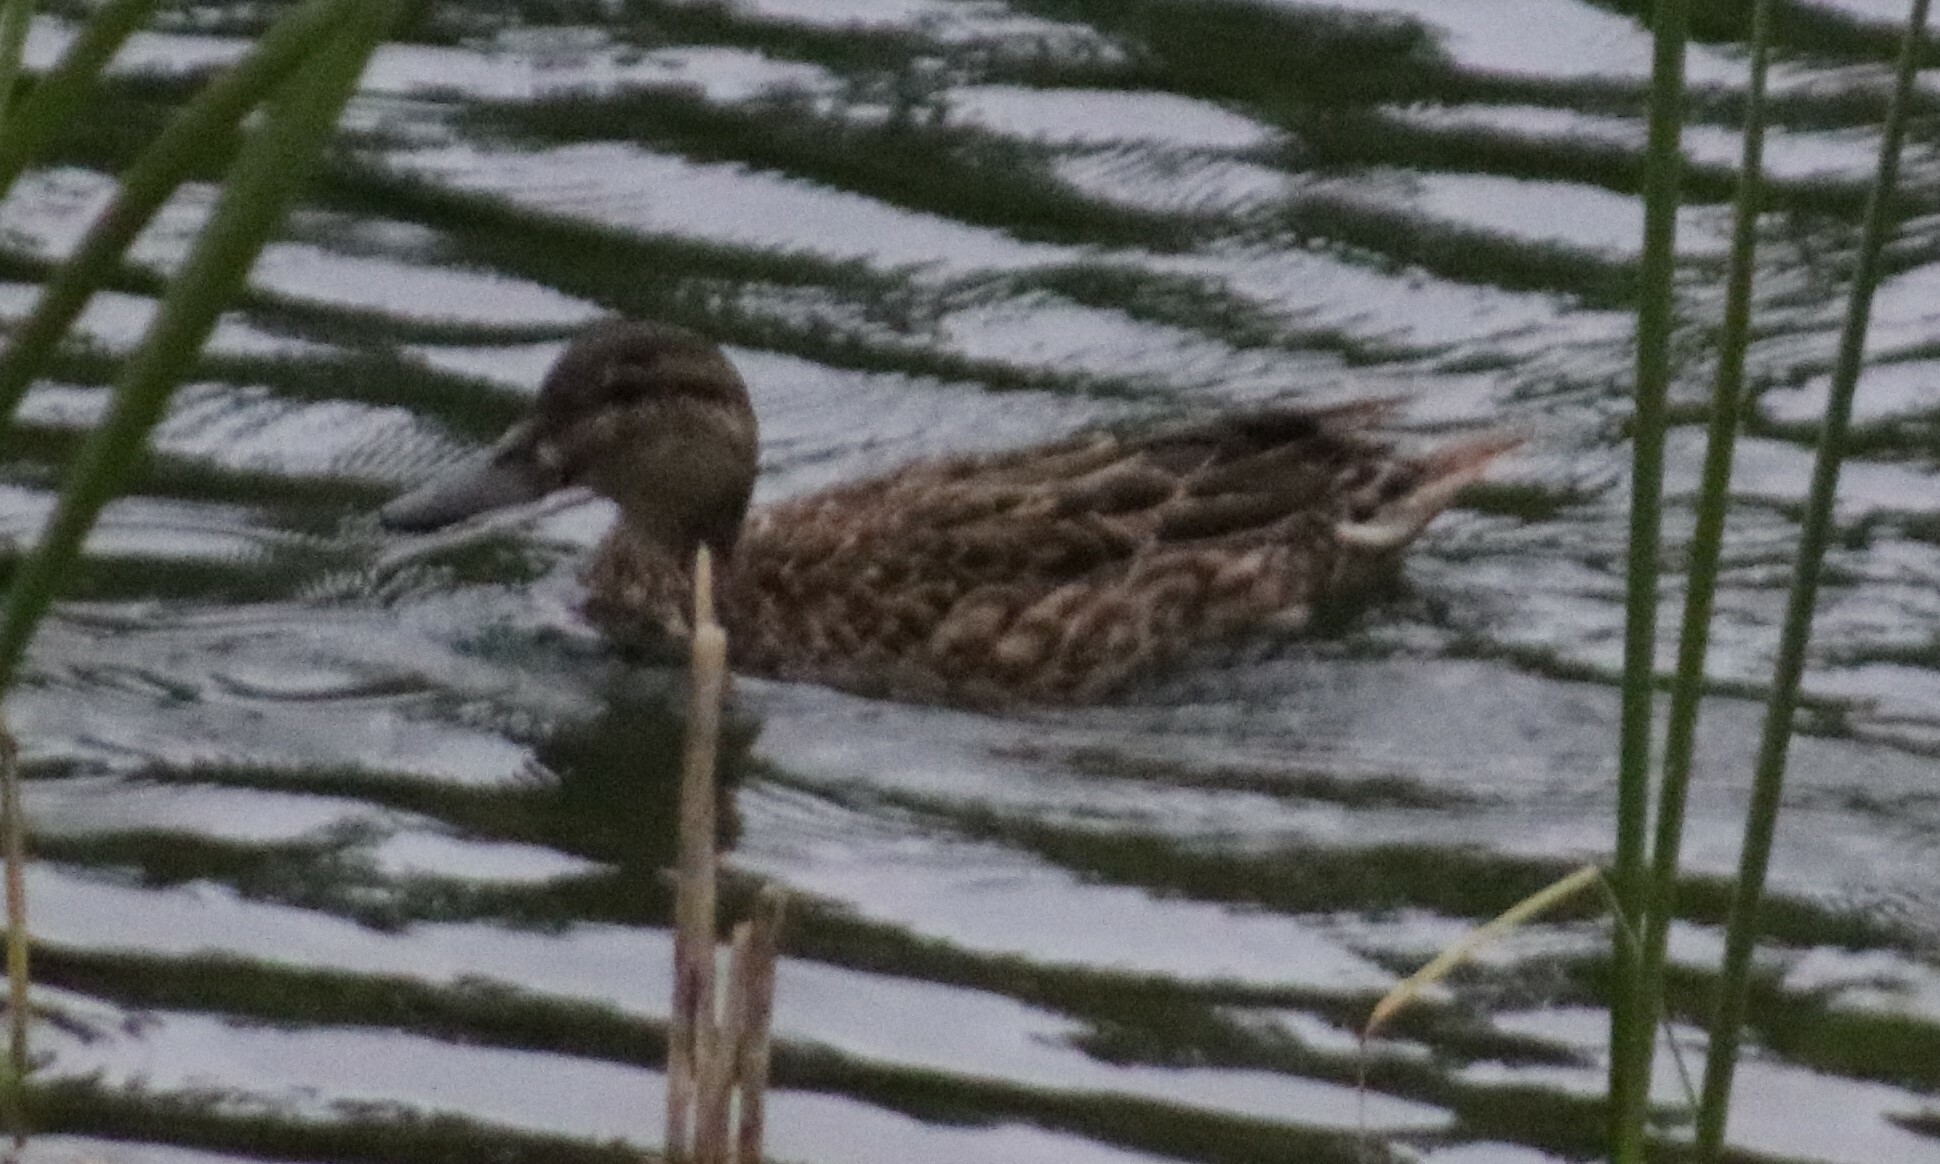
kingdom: Animalia
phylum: Chordata
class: Aves
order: Anseriformes
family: Anatidae
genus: Anas
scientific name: Anas crecca
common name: Eurasian teal
